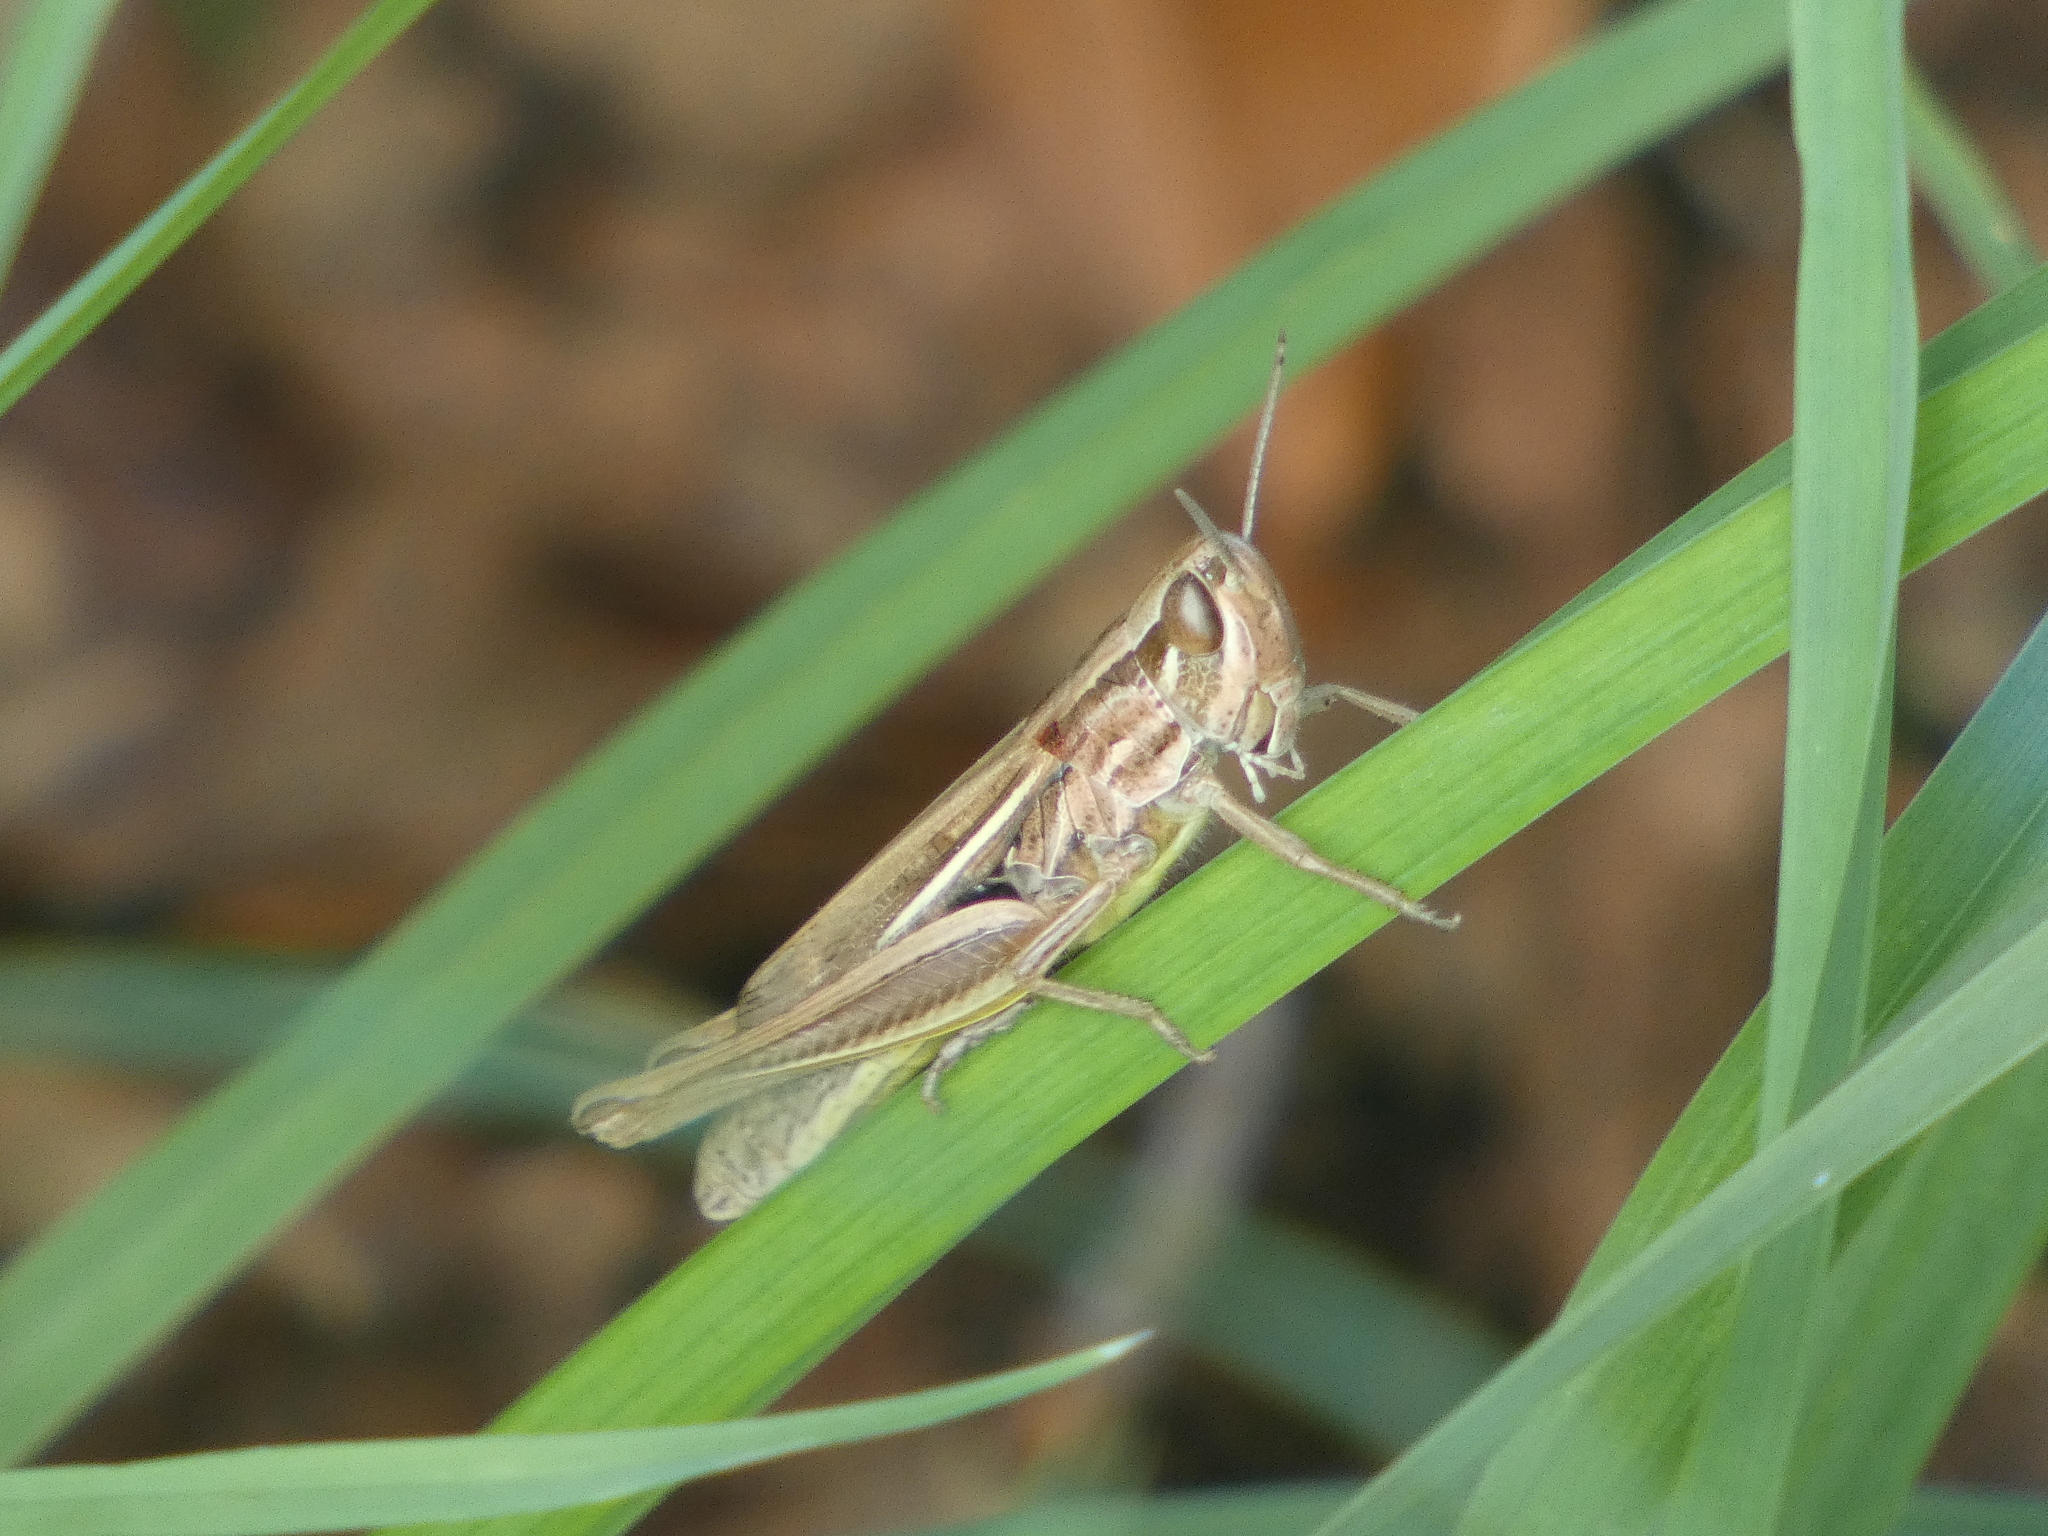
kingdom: Animalia
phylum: Arthropoda
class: Insecta
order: Orthoptera
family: Acrididae
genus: Euchorthippus
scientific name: Euchorthippus declivus
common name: Common straw grasshopper
